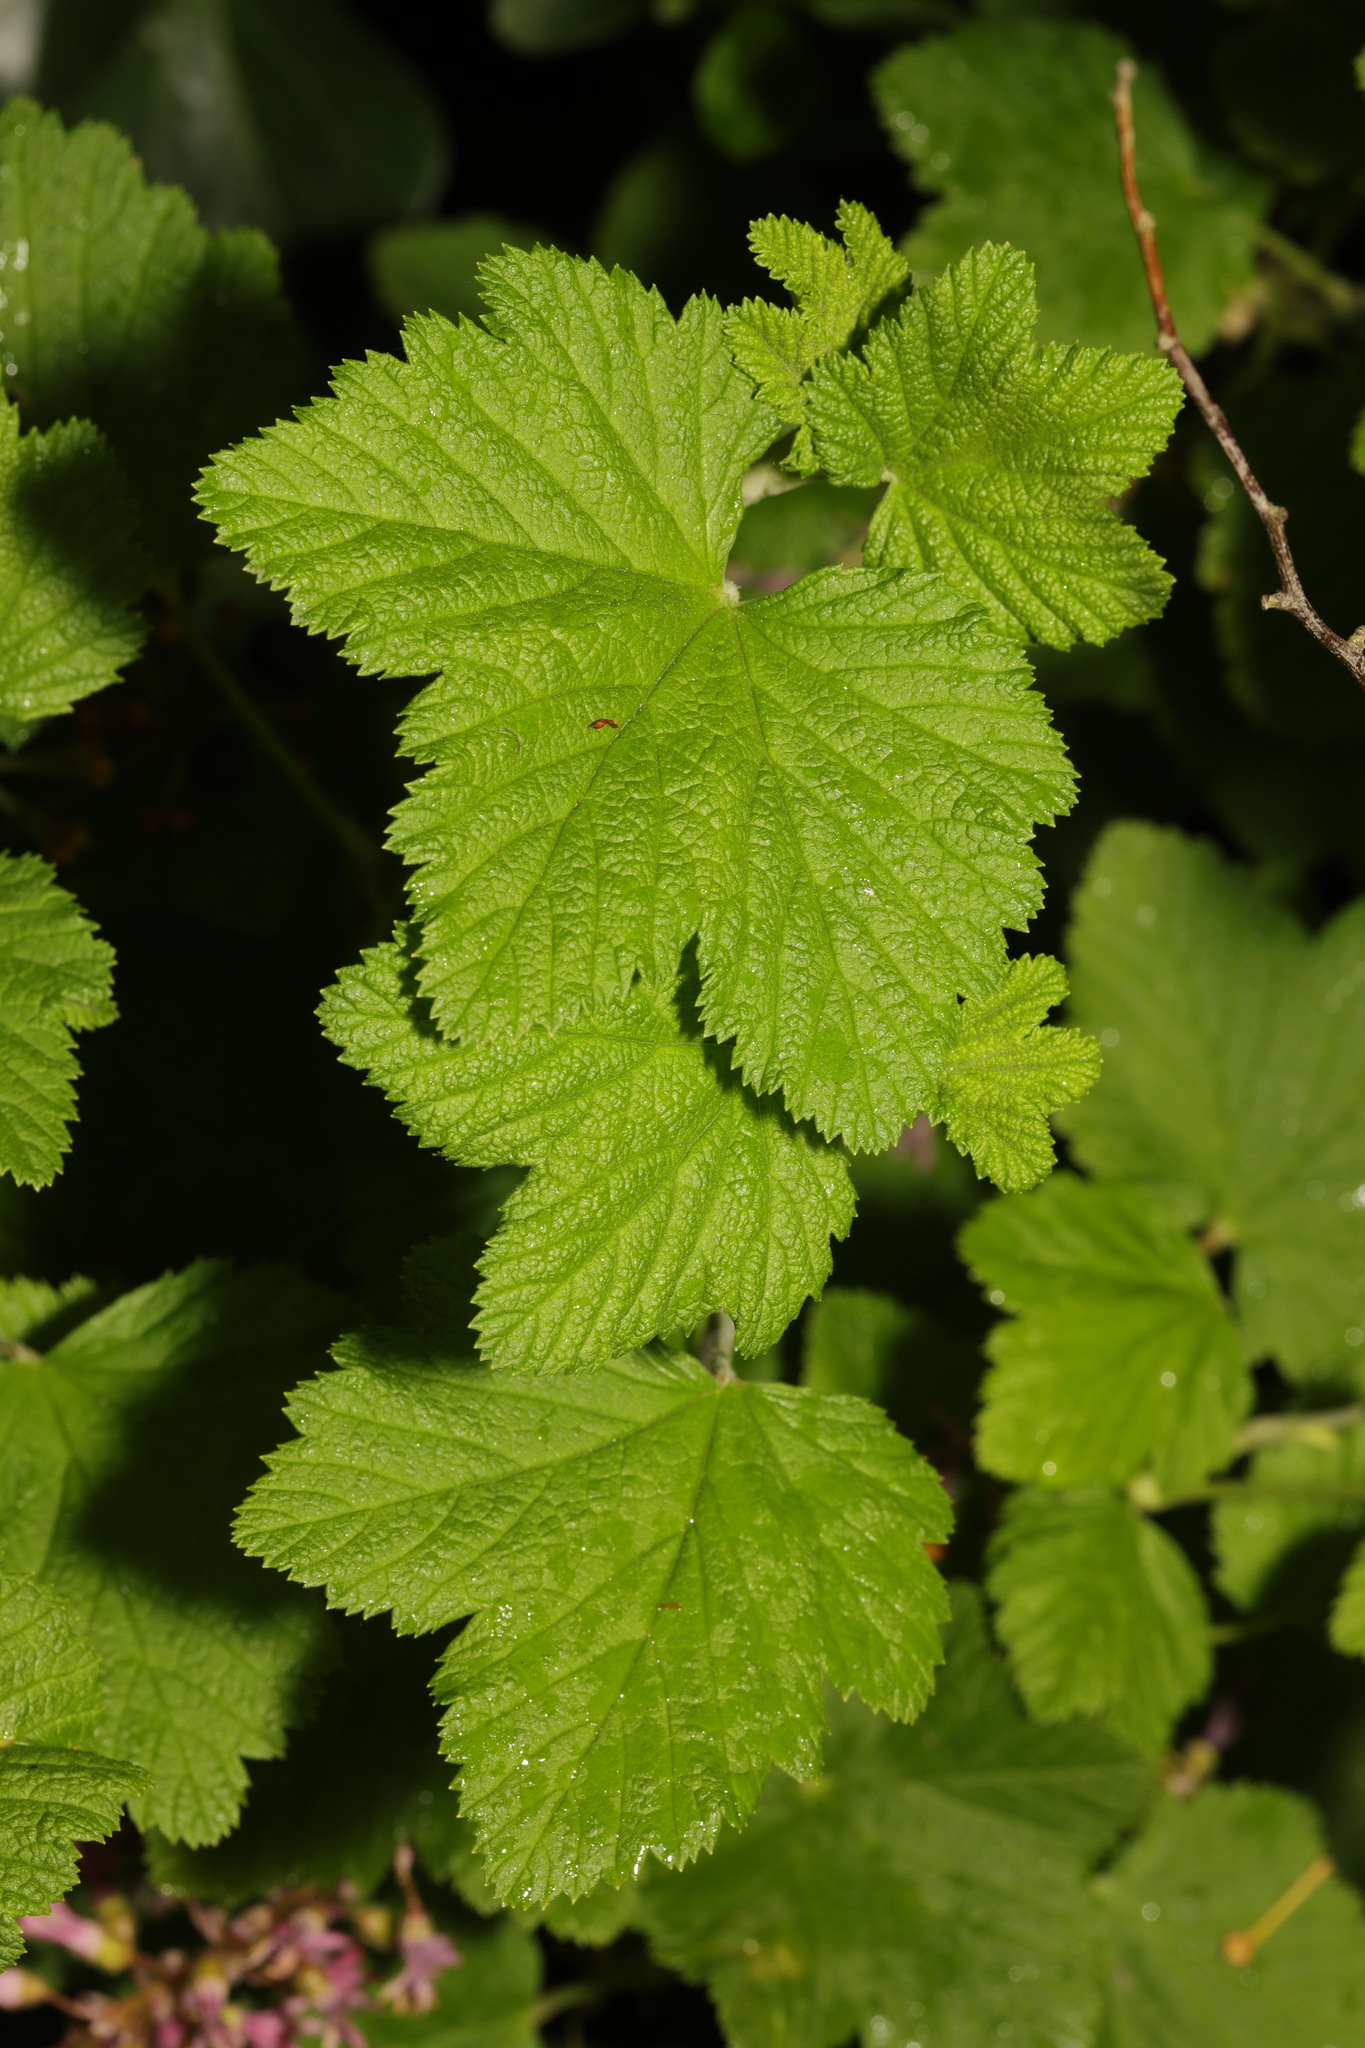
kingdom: Plantae
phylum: Tracheophyta
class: Magnoliopsida
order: Saxifragales
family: Grossulariaceae
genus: Ribes
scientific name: Ribes sanguineum
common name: Flowering currant
